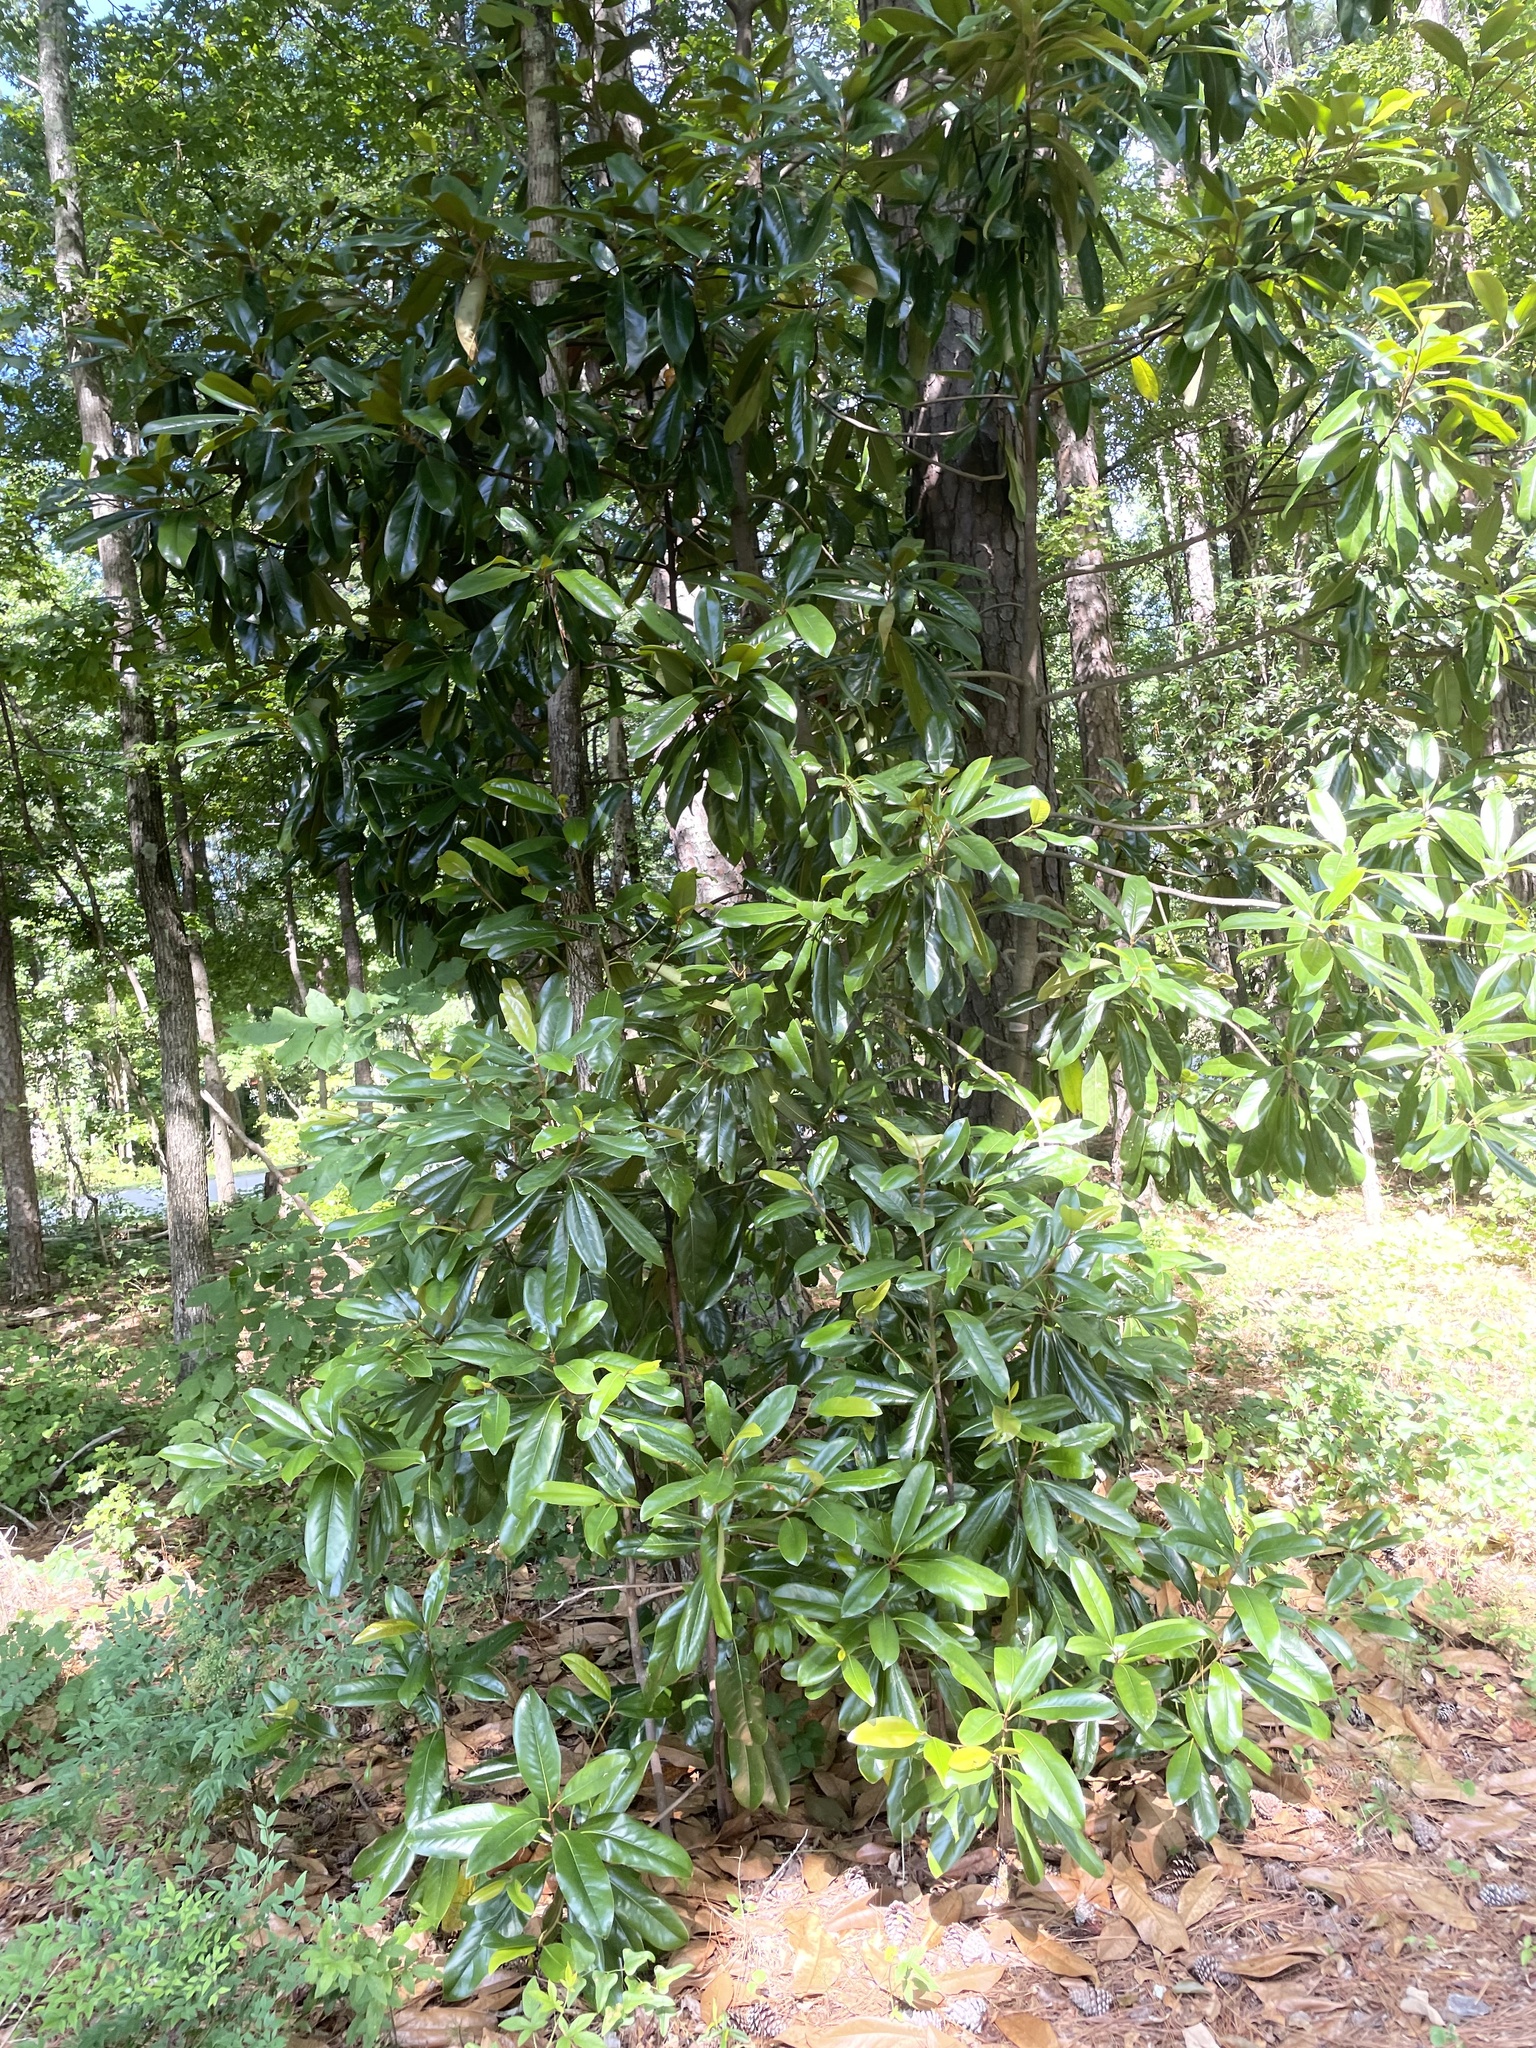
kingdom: Plantae
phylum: Tracheophyta
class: Magnoliopsida
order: Magnoliales
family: Magnoliaceae
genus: Magnolia
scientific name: Magnolia grandiflora
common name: Southern magnolia
